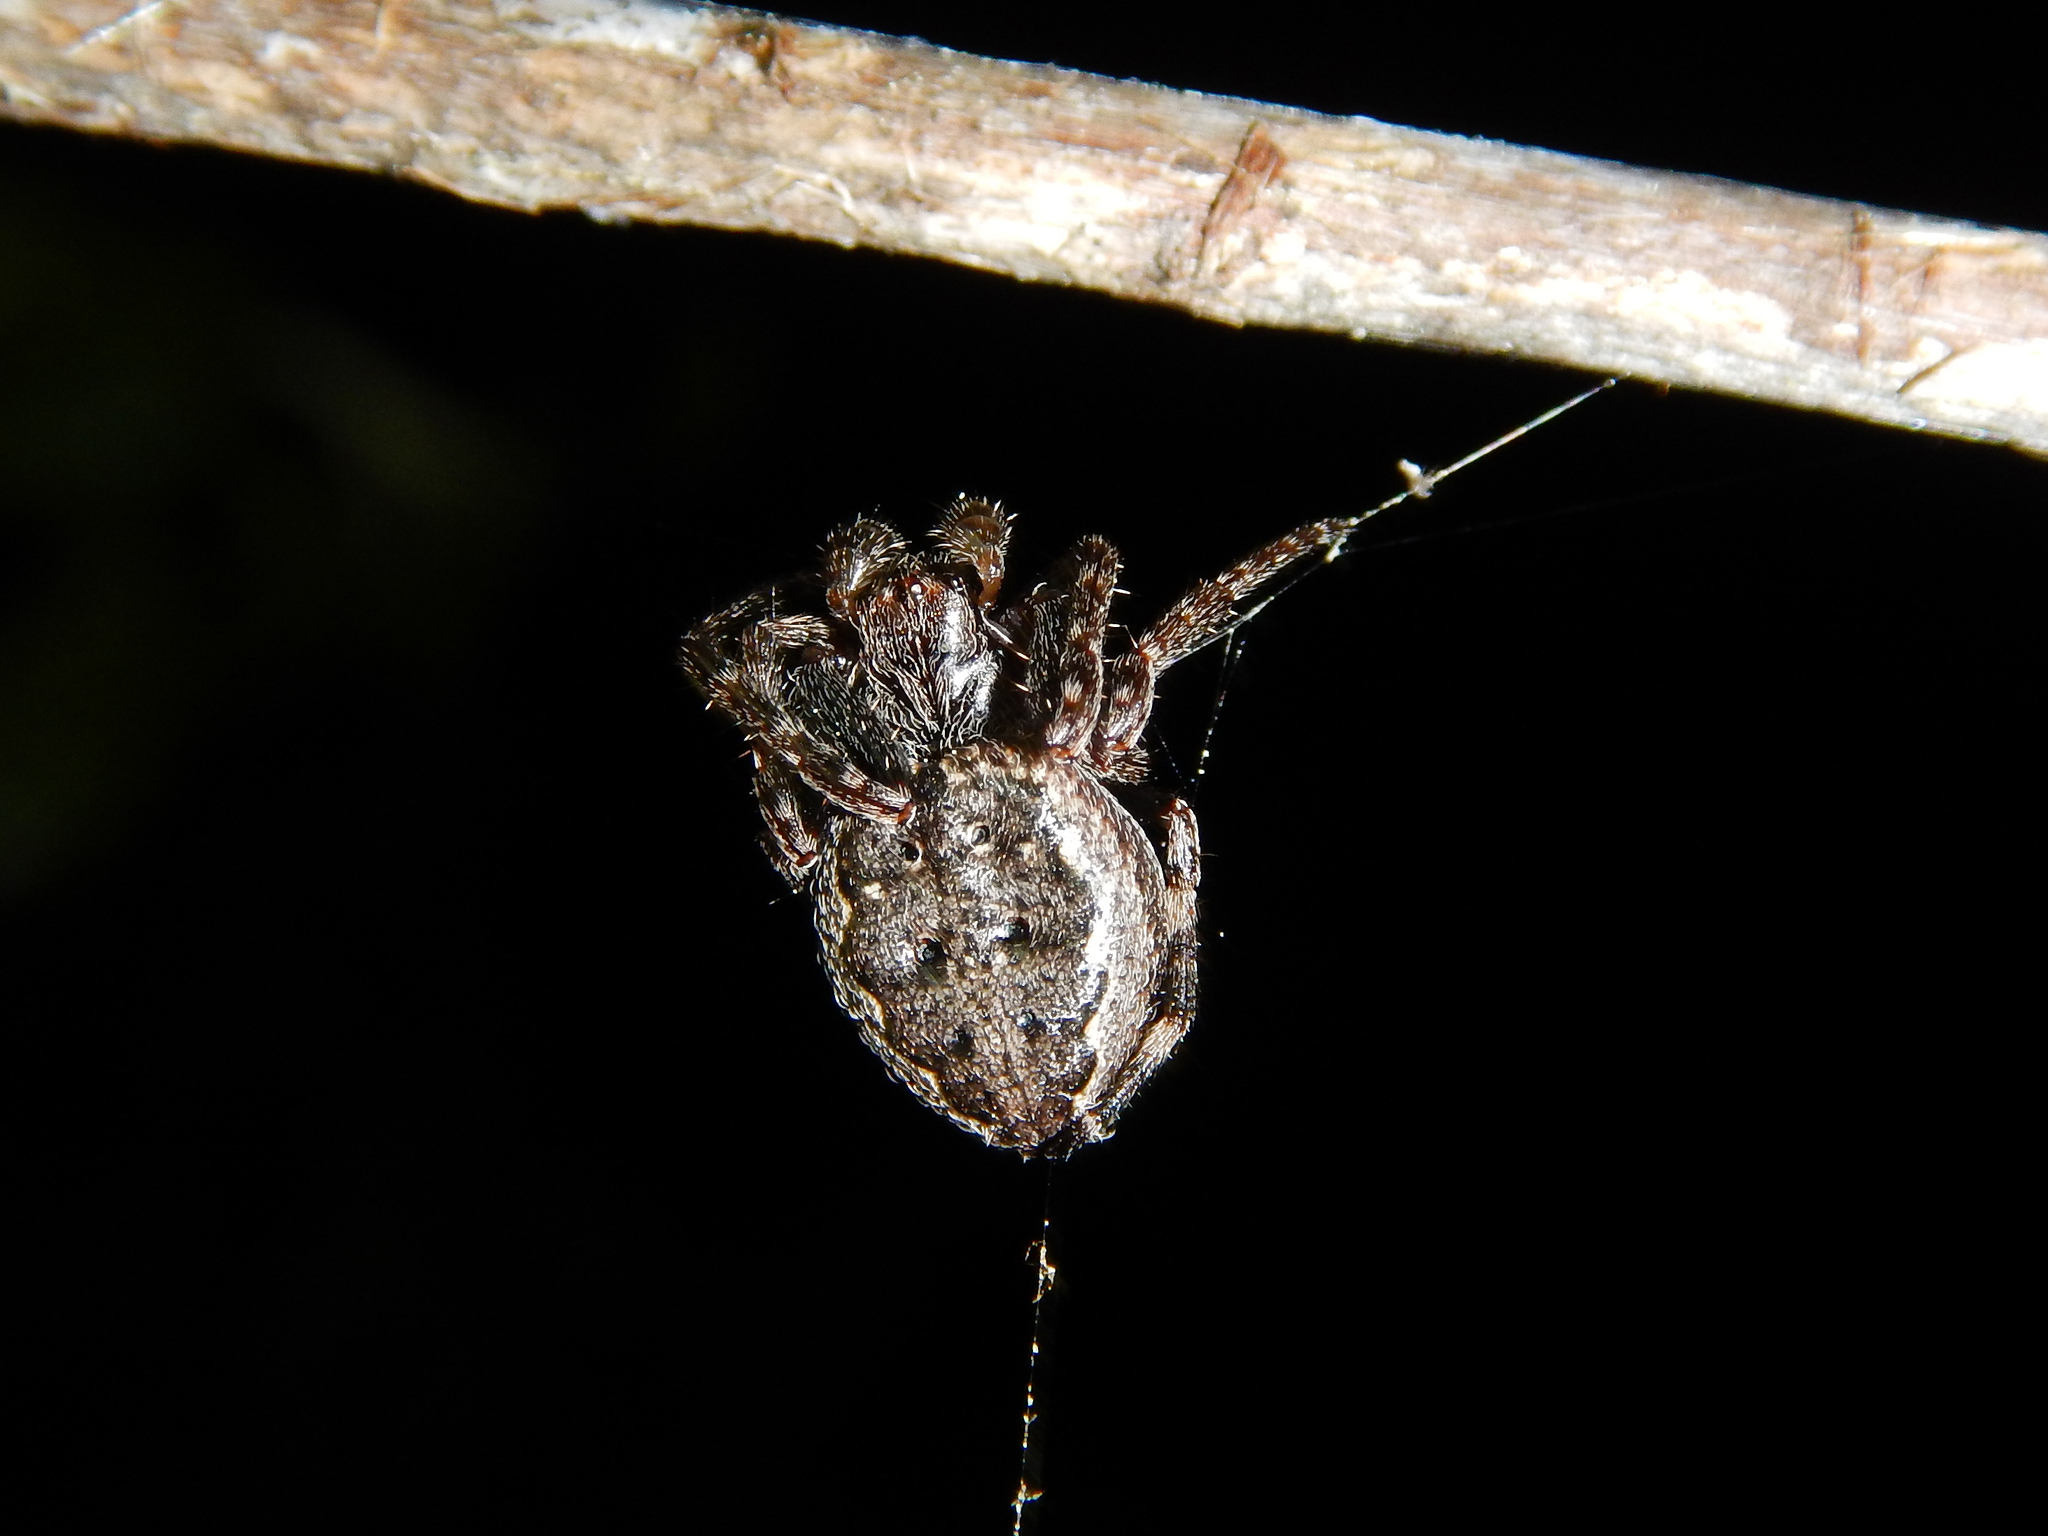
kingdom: Animalia
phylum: Arthropoda
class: Arachnida
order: Araneae
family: Araneidae
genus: Nuctenea
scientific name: Nuctenea umbratica
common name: Toad spider
